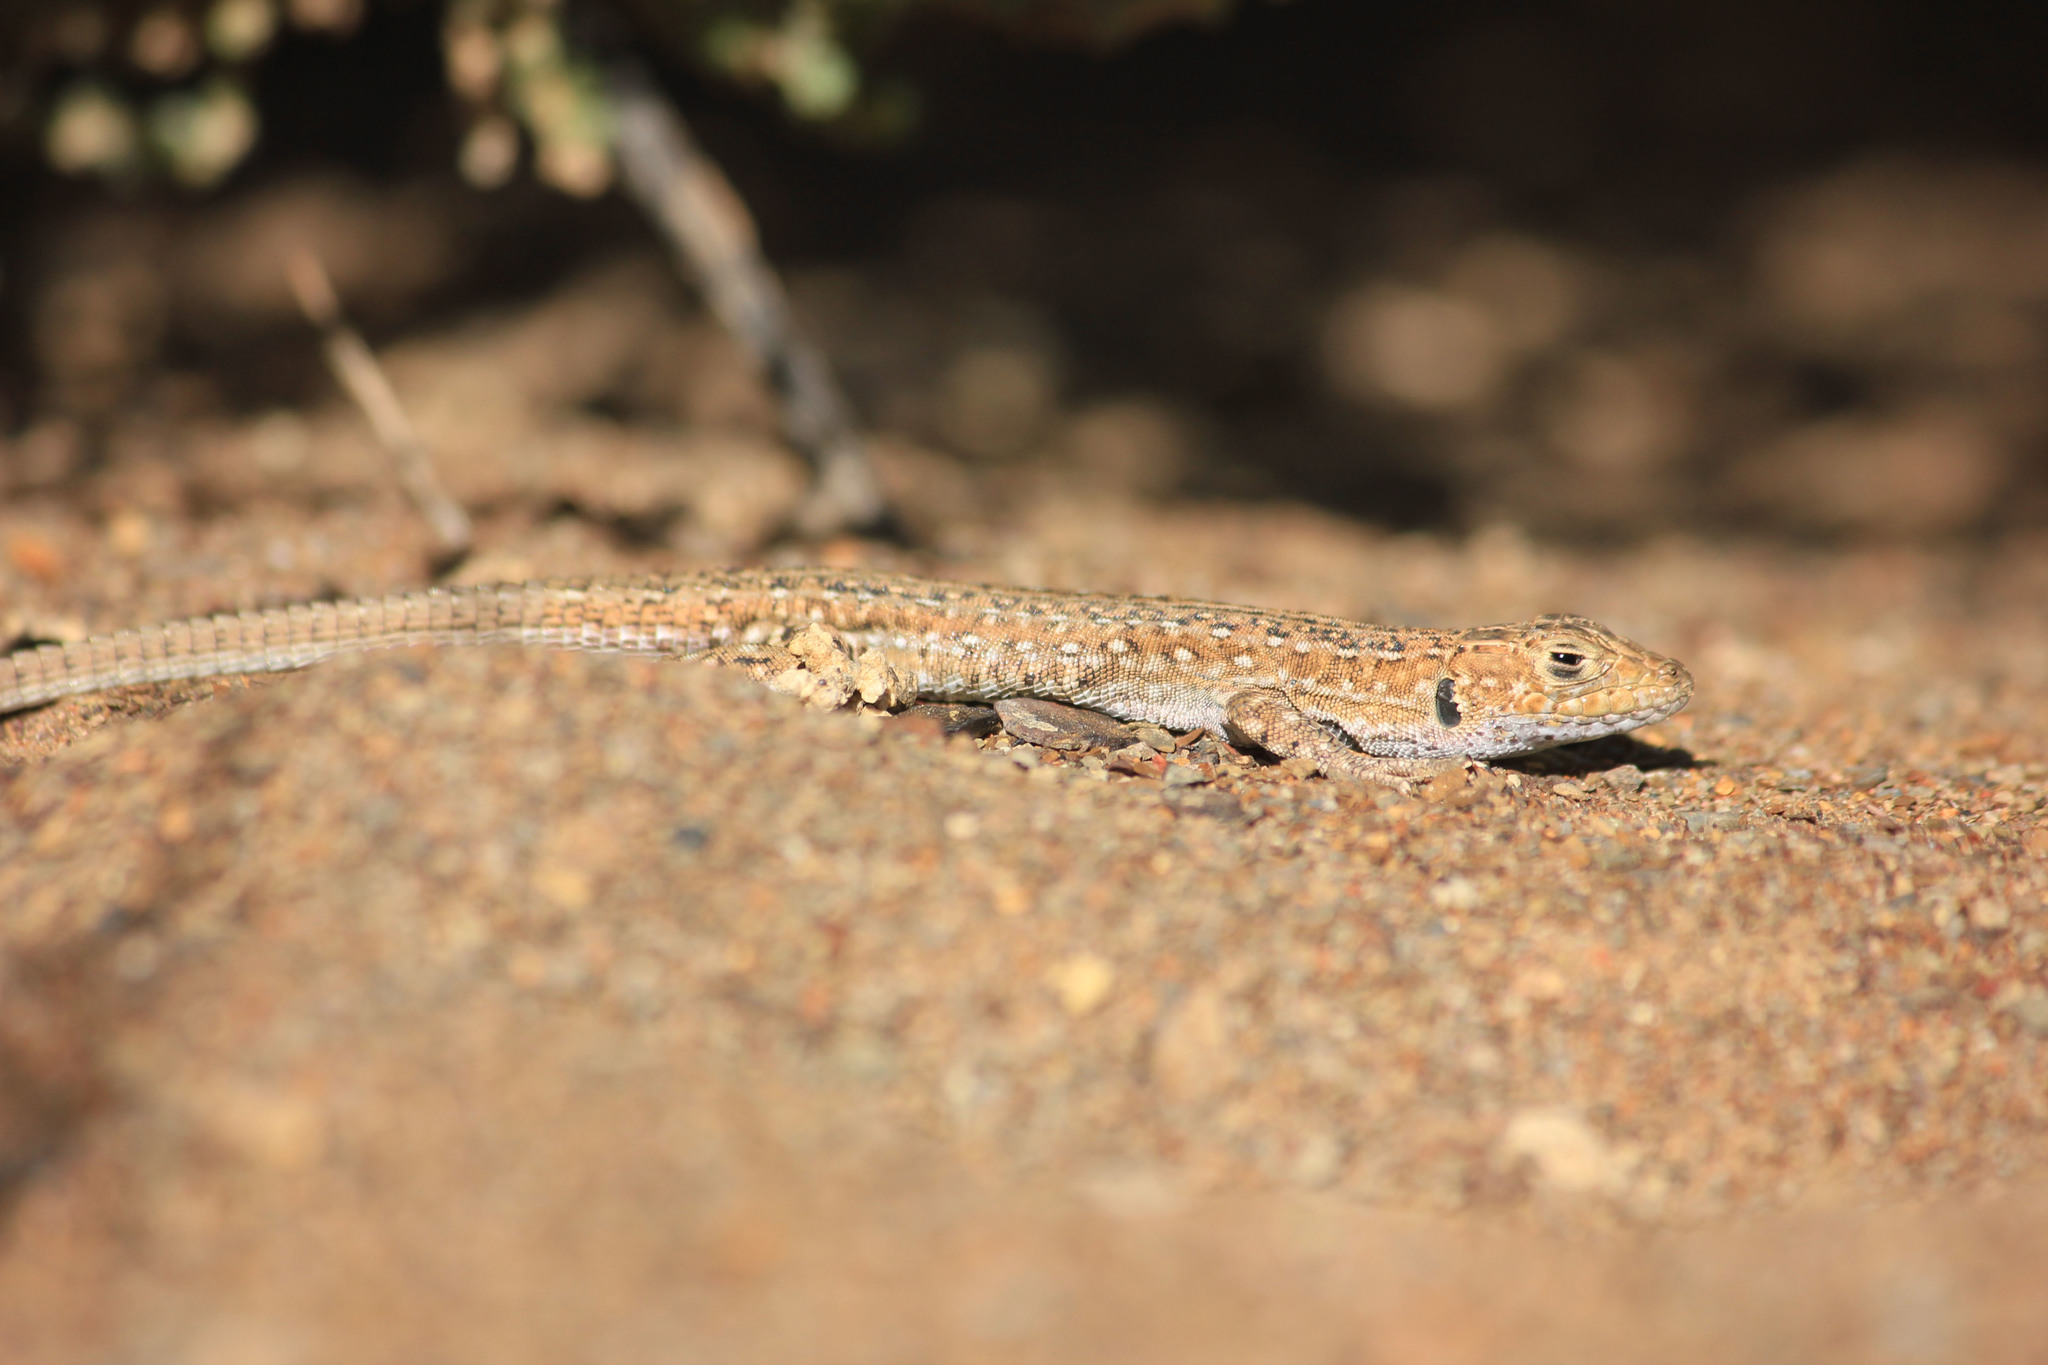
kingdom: Animalia
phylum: Chordata
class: Squamata
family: Lacertidae
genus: Meroles
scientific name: Meroles knoxii
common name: Knox's desert lizard
